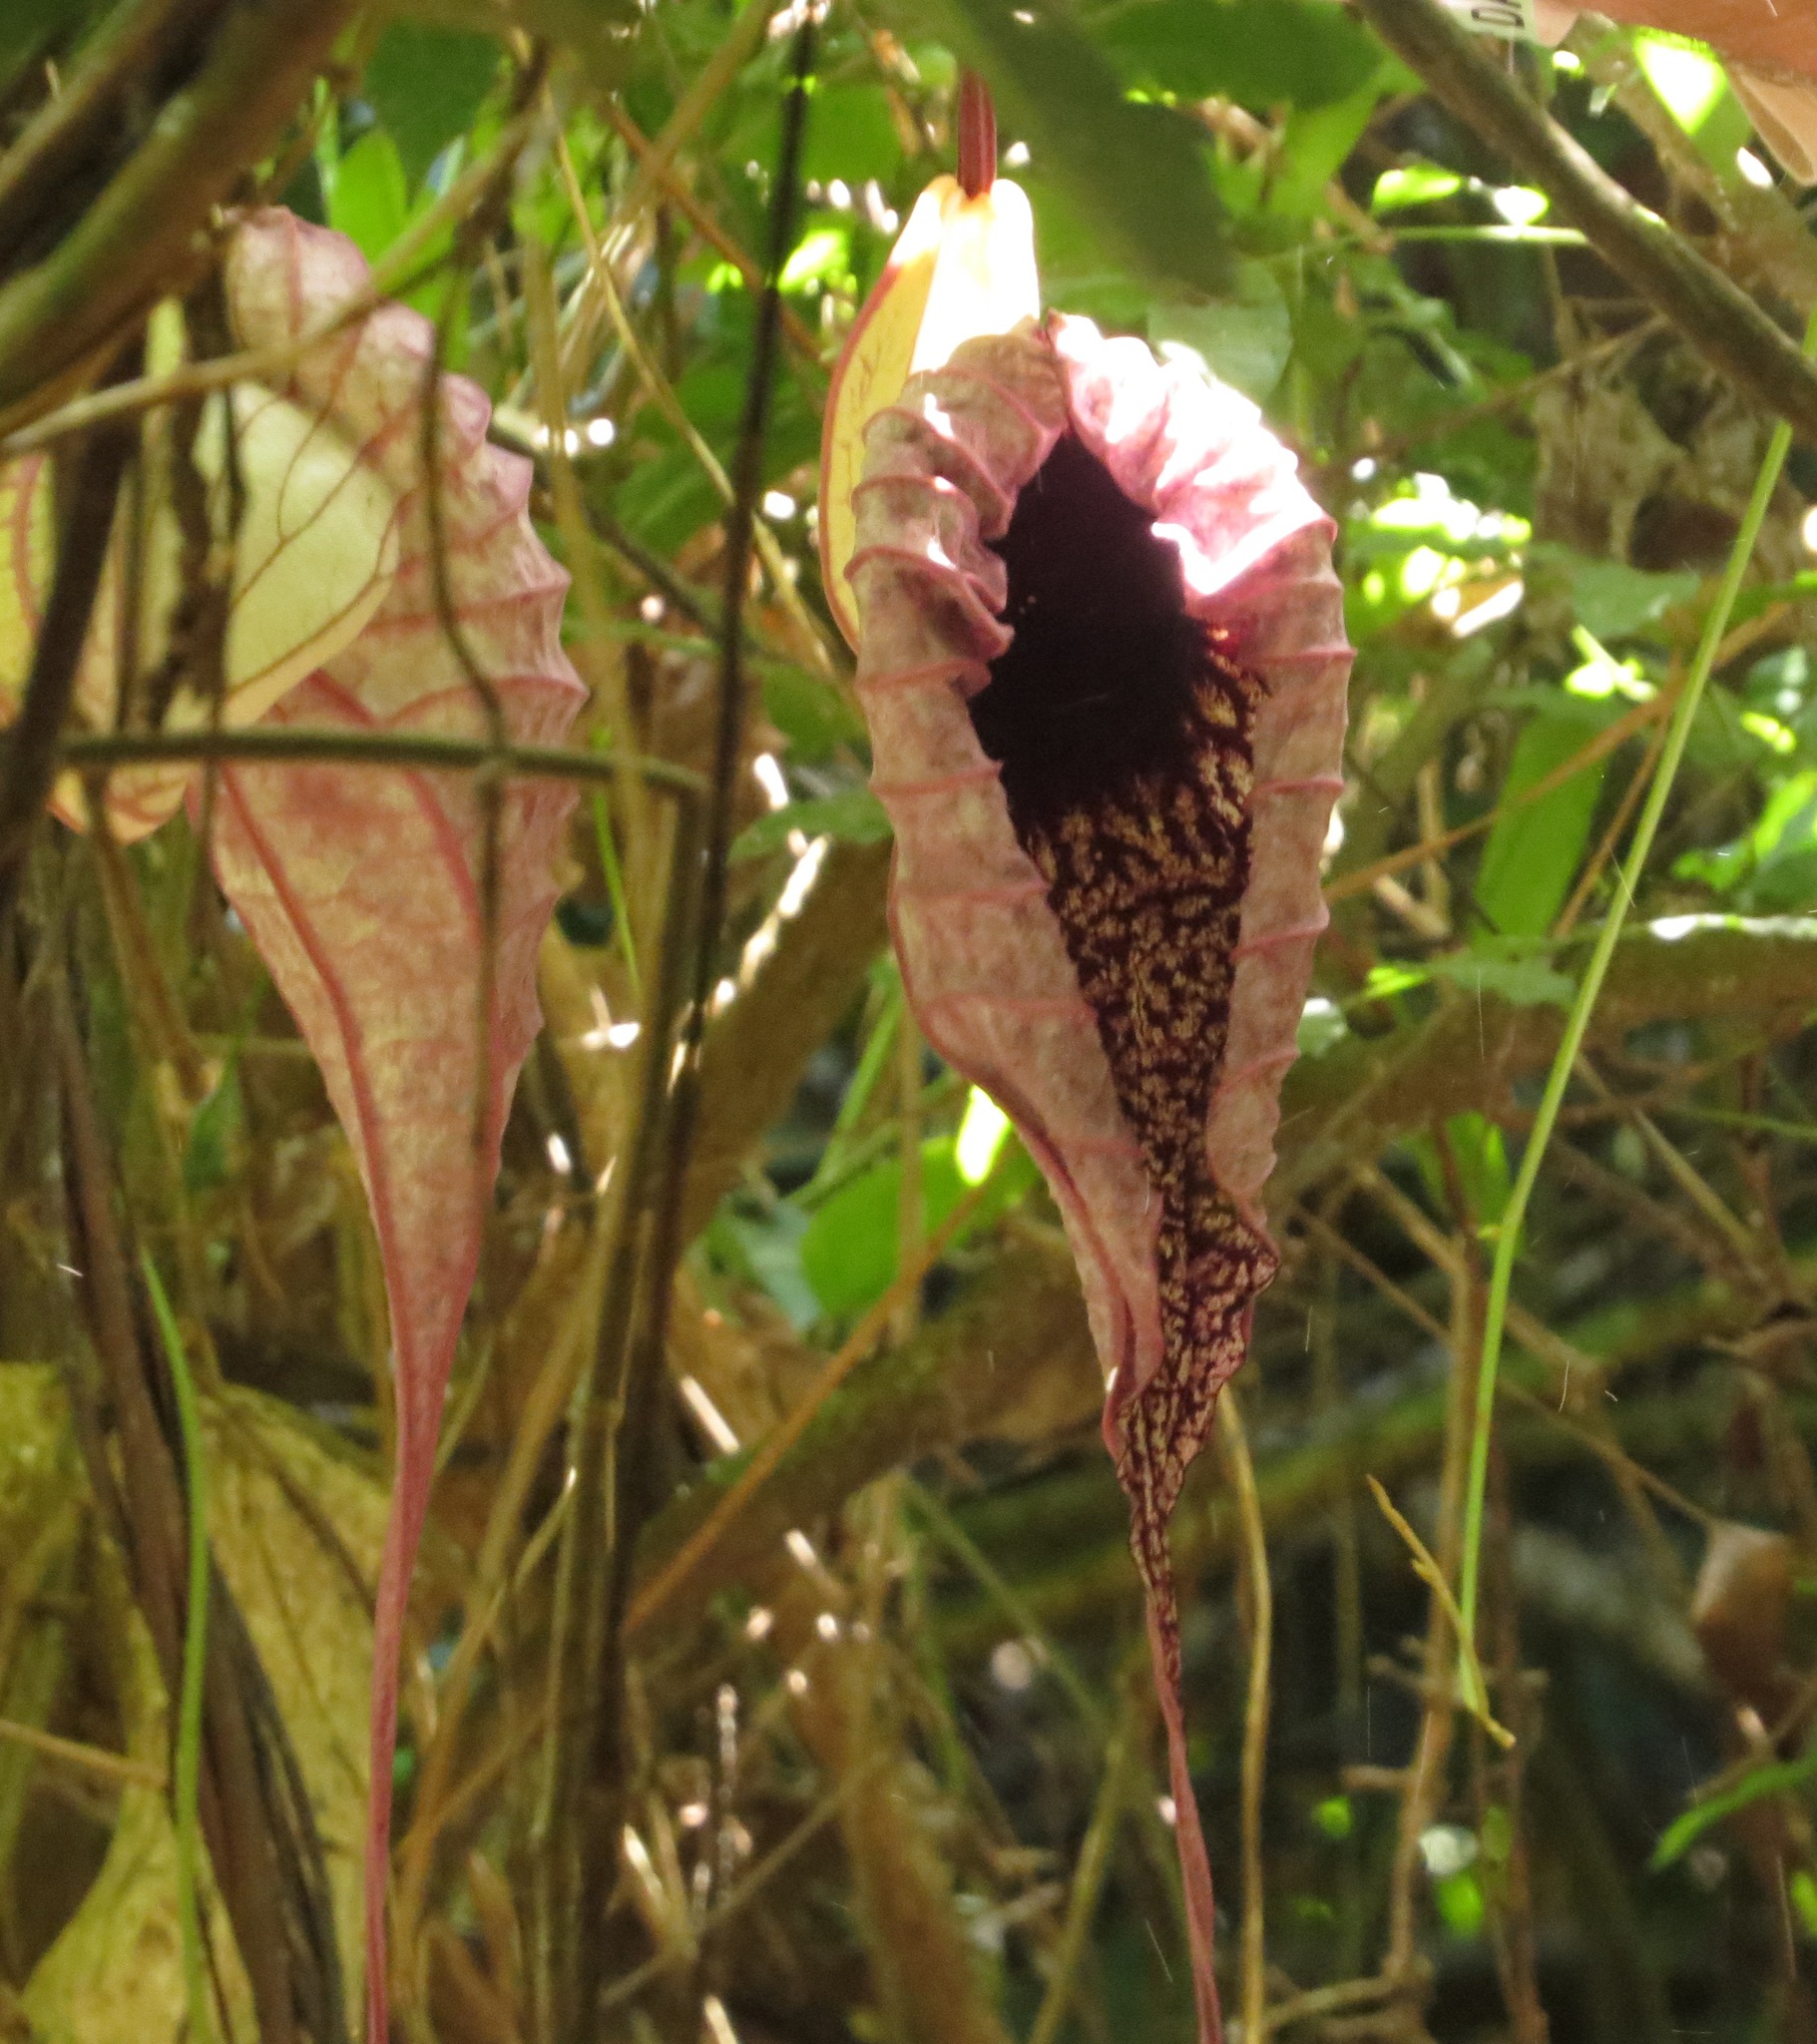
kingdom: Plantae
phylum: Tracheophyta
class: Magnoliopsida
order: Piperales
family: Aristolochiaceae
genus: Aristolochia
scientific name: Aristolochia grandiflora
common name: Pelicanflower
